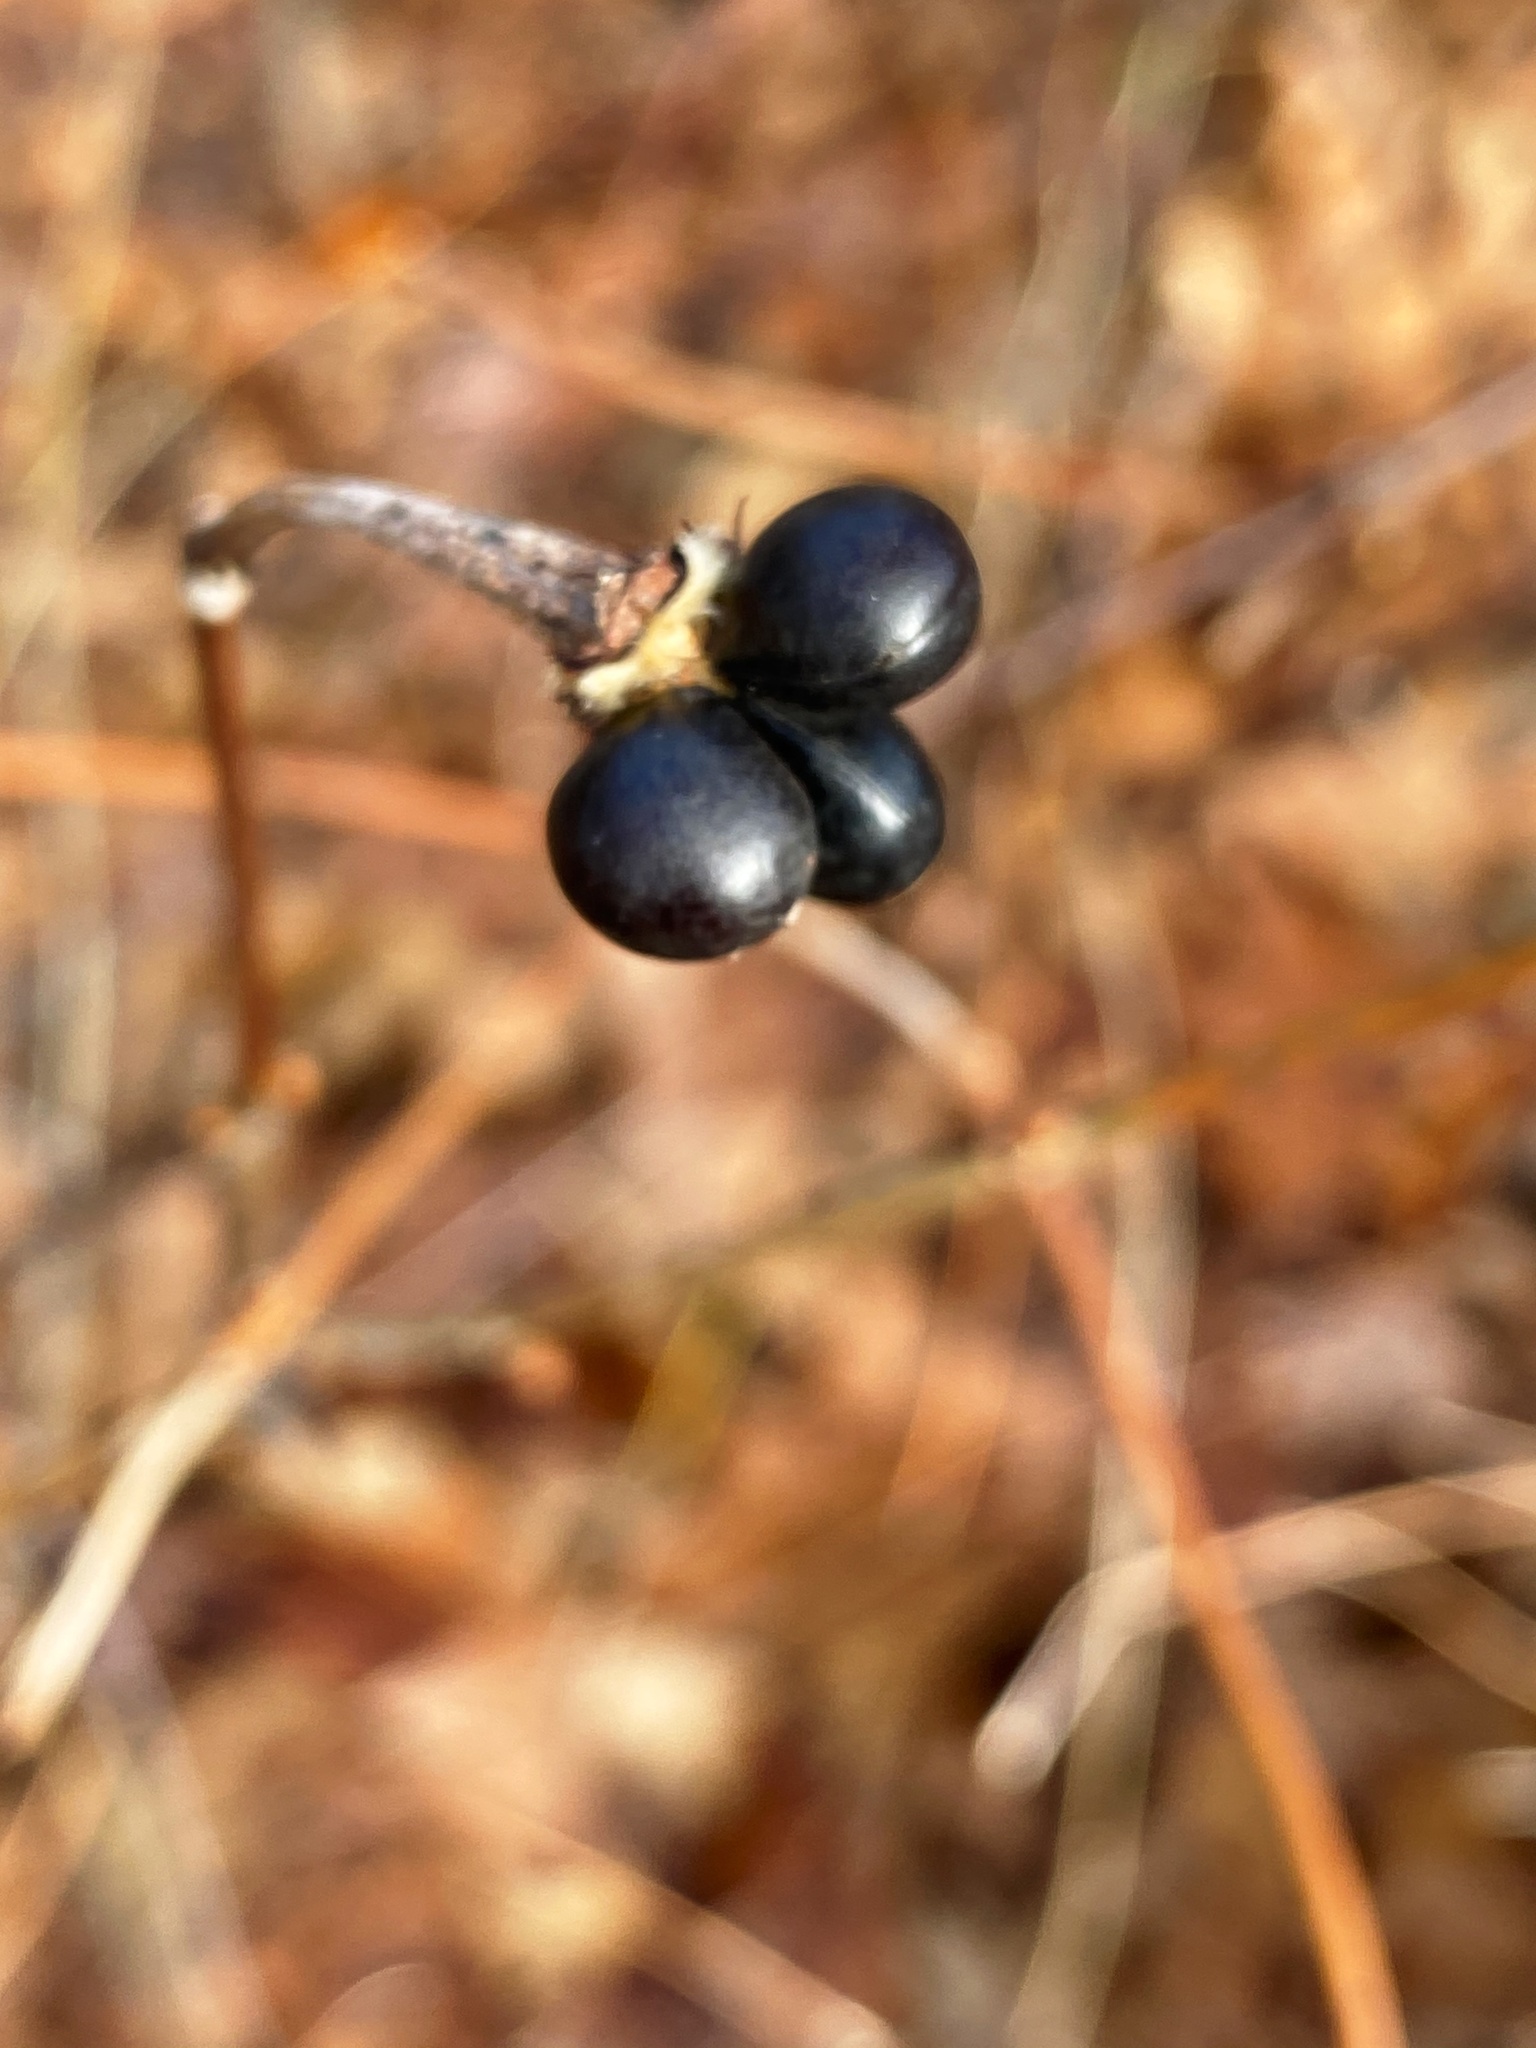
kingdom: Plantae
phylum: Tracheophyta
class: Magnoliopsida
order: Rosales
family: Rosaceae
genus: Rhodotypos
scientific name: Rhodotypos scandens
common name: Jetbead
